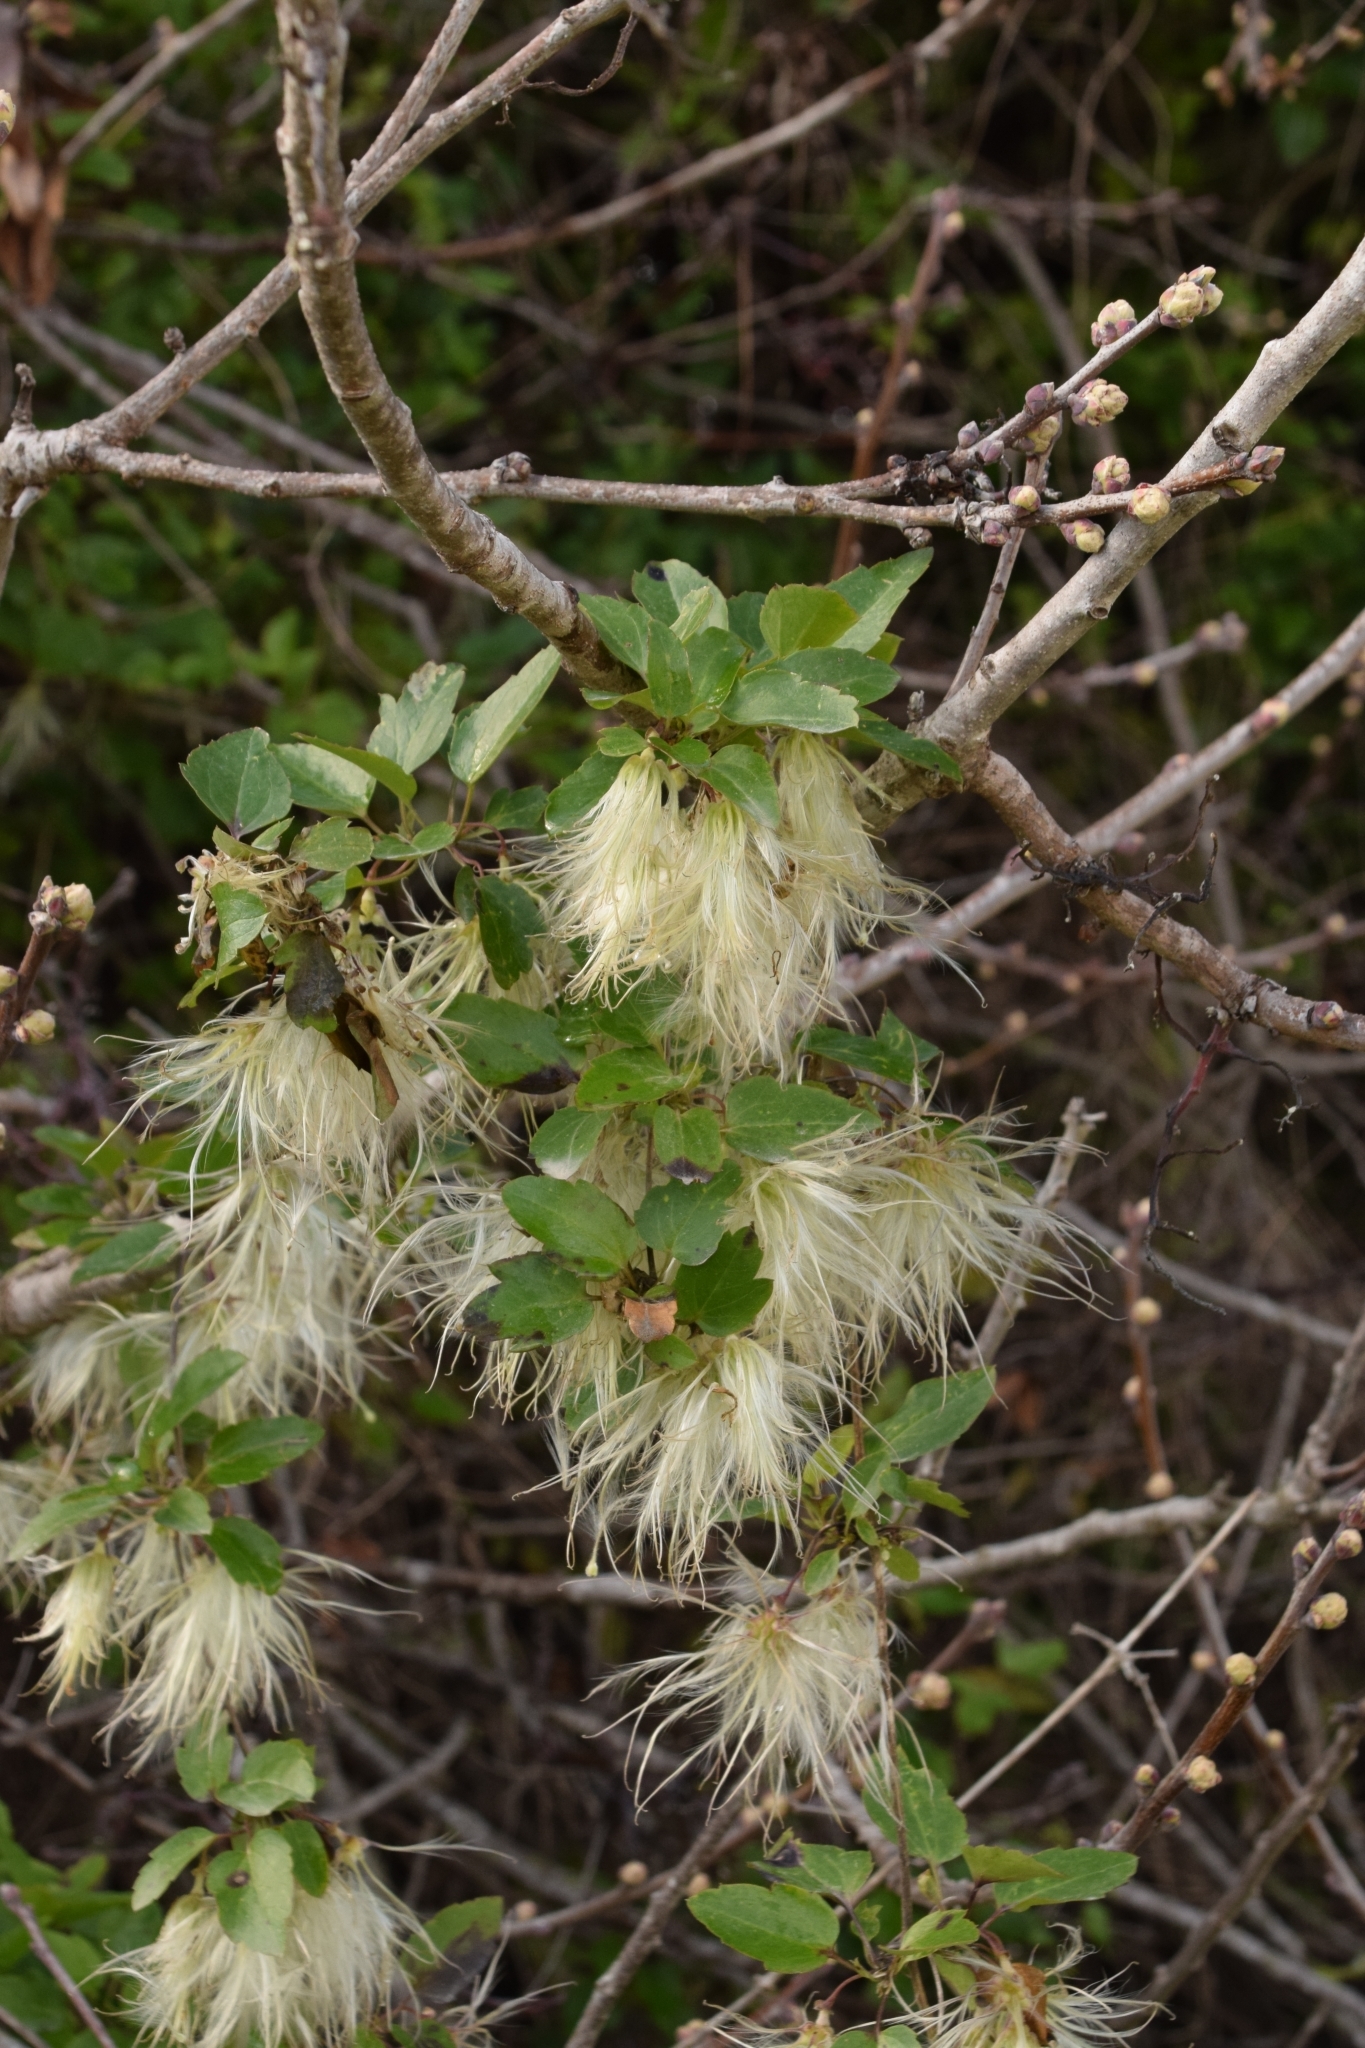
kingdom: Plantae
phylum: Tracheophyta
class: Magnoliopsida
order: Ranunculales
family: Ranunculaceae
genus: Clematis
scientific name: Clematis cirrhosa
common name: Early virgin's-bower
